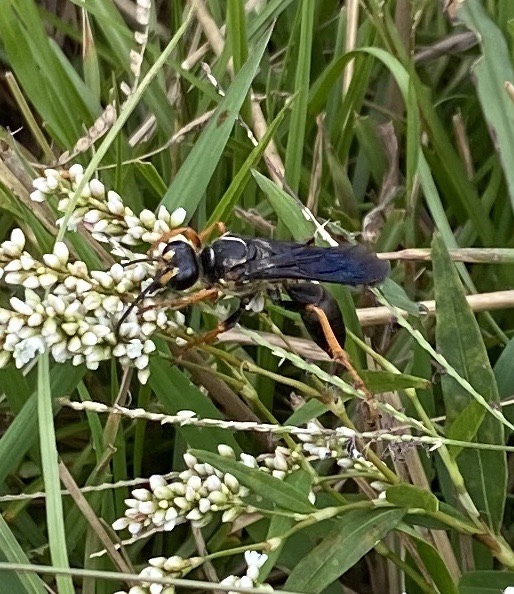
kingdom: Animalia
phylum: Arthropoda
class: Insecta
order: Hymenoptera
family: Sphecidae
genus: Sphex
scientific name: Sphex flavovestitus
